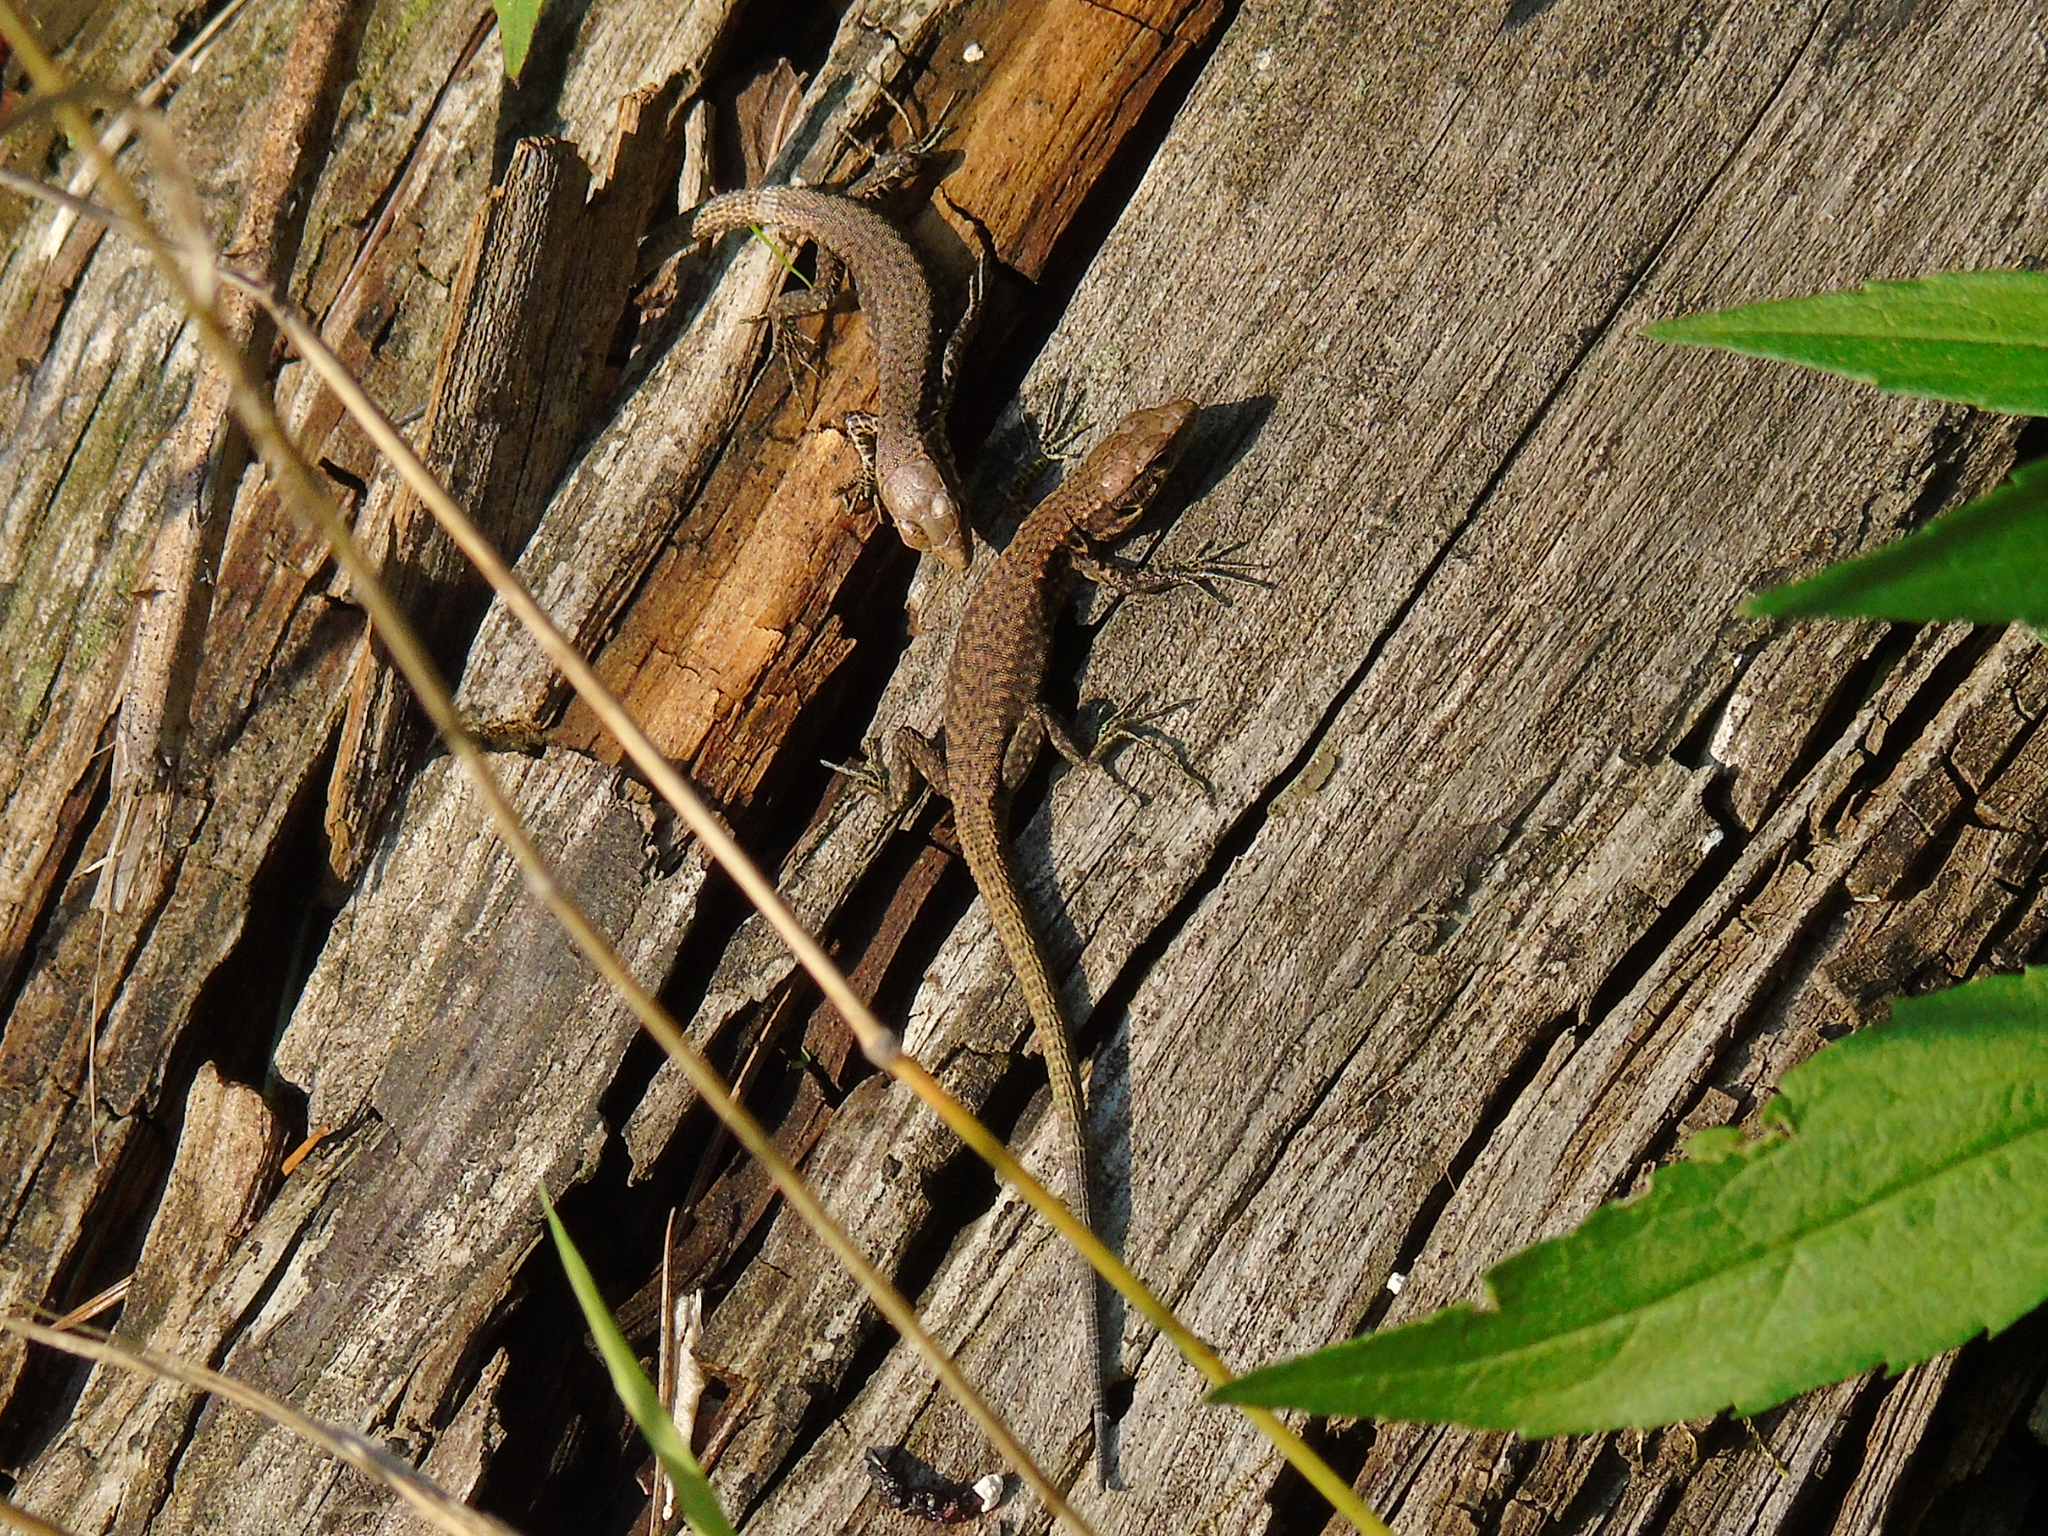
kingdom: Animalia
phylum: Chordata
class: Squamata
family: Lacertidae
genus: Darevskia
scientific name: Darevskia rudis
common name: Spiny-tailed lizard
